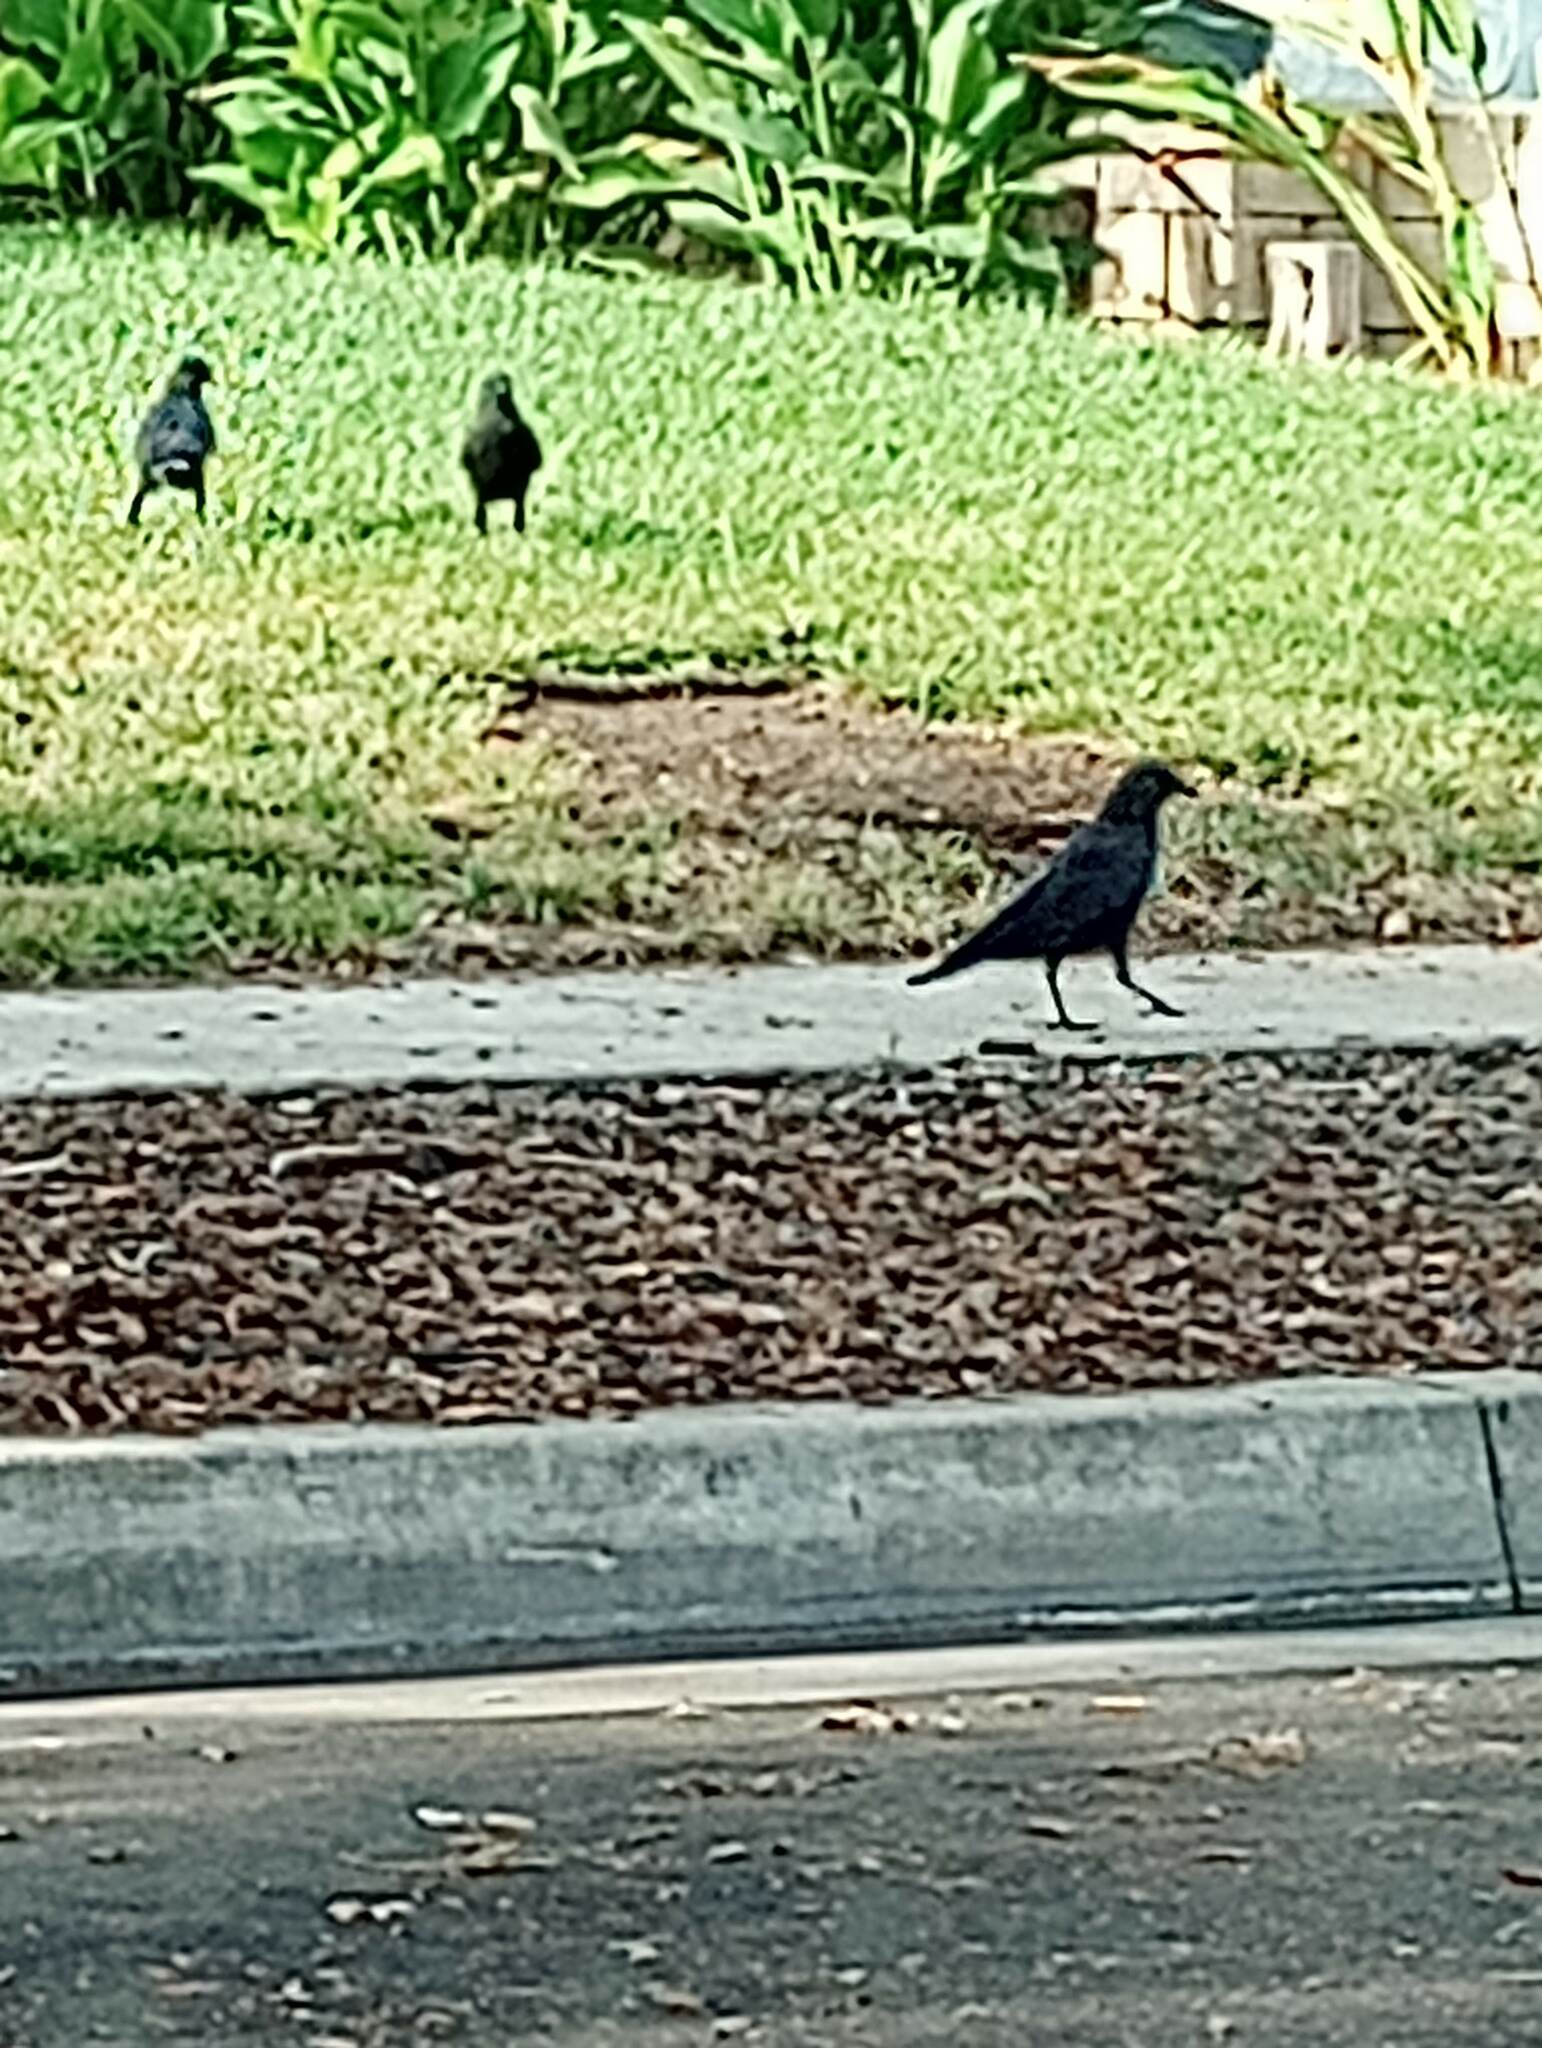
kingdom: Animalia
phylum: Chordata
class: Aves
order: Passeriformes
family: Corvidae
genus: Corvus
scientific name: Corvus brachyrhynchos
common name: American crow
